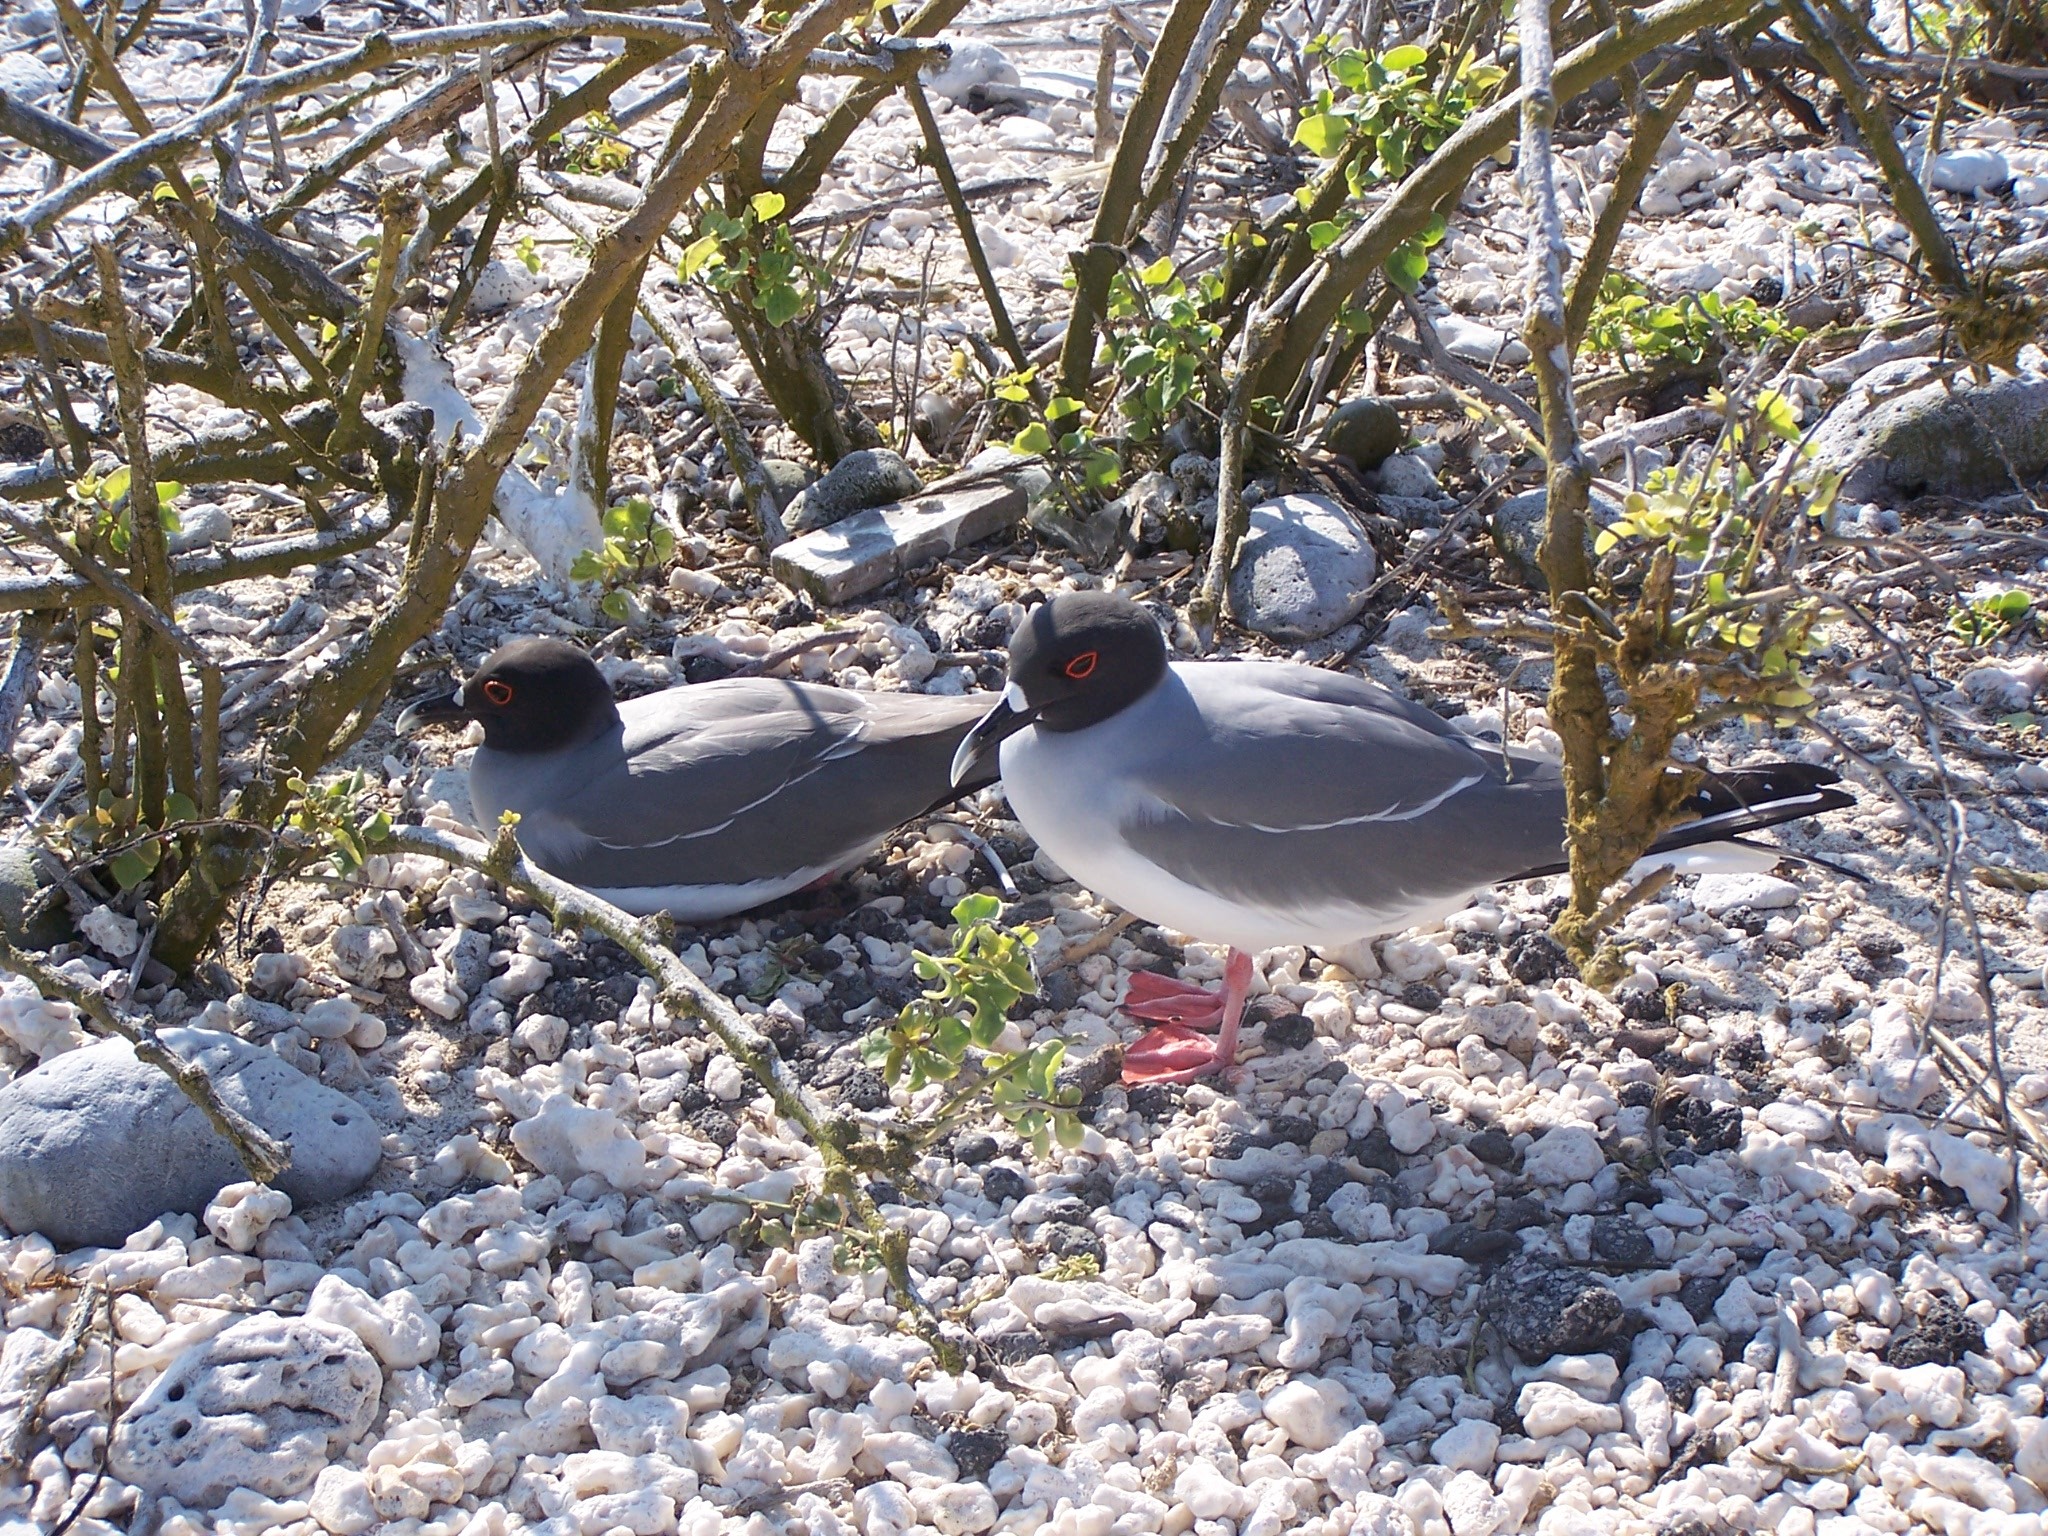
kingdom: Animalia
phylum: Chordata
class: Aves
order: Charadriiformes
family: Laridae
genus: Creagrus
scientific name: Creagrus furcatus
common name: Swallow-tailed gull
